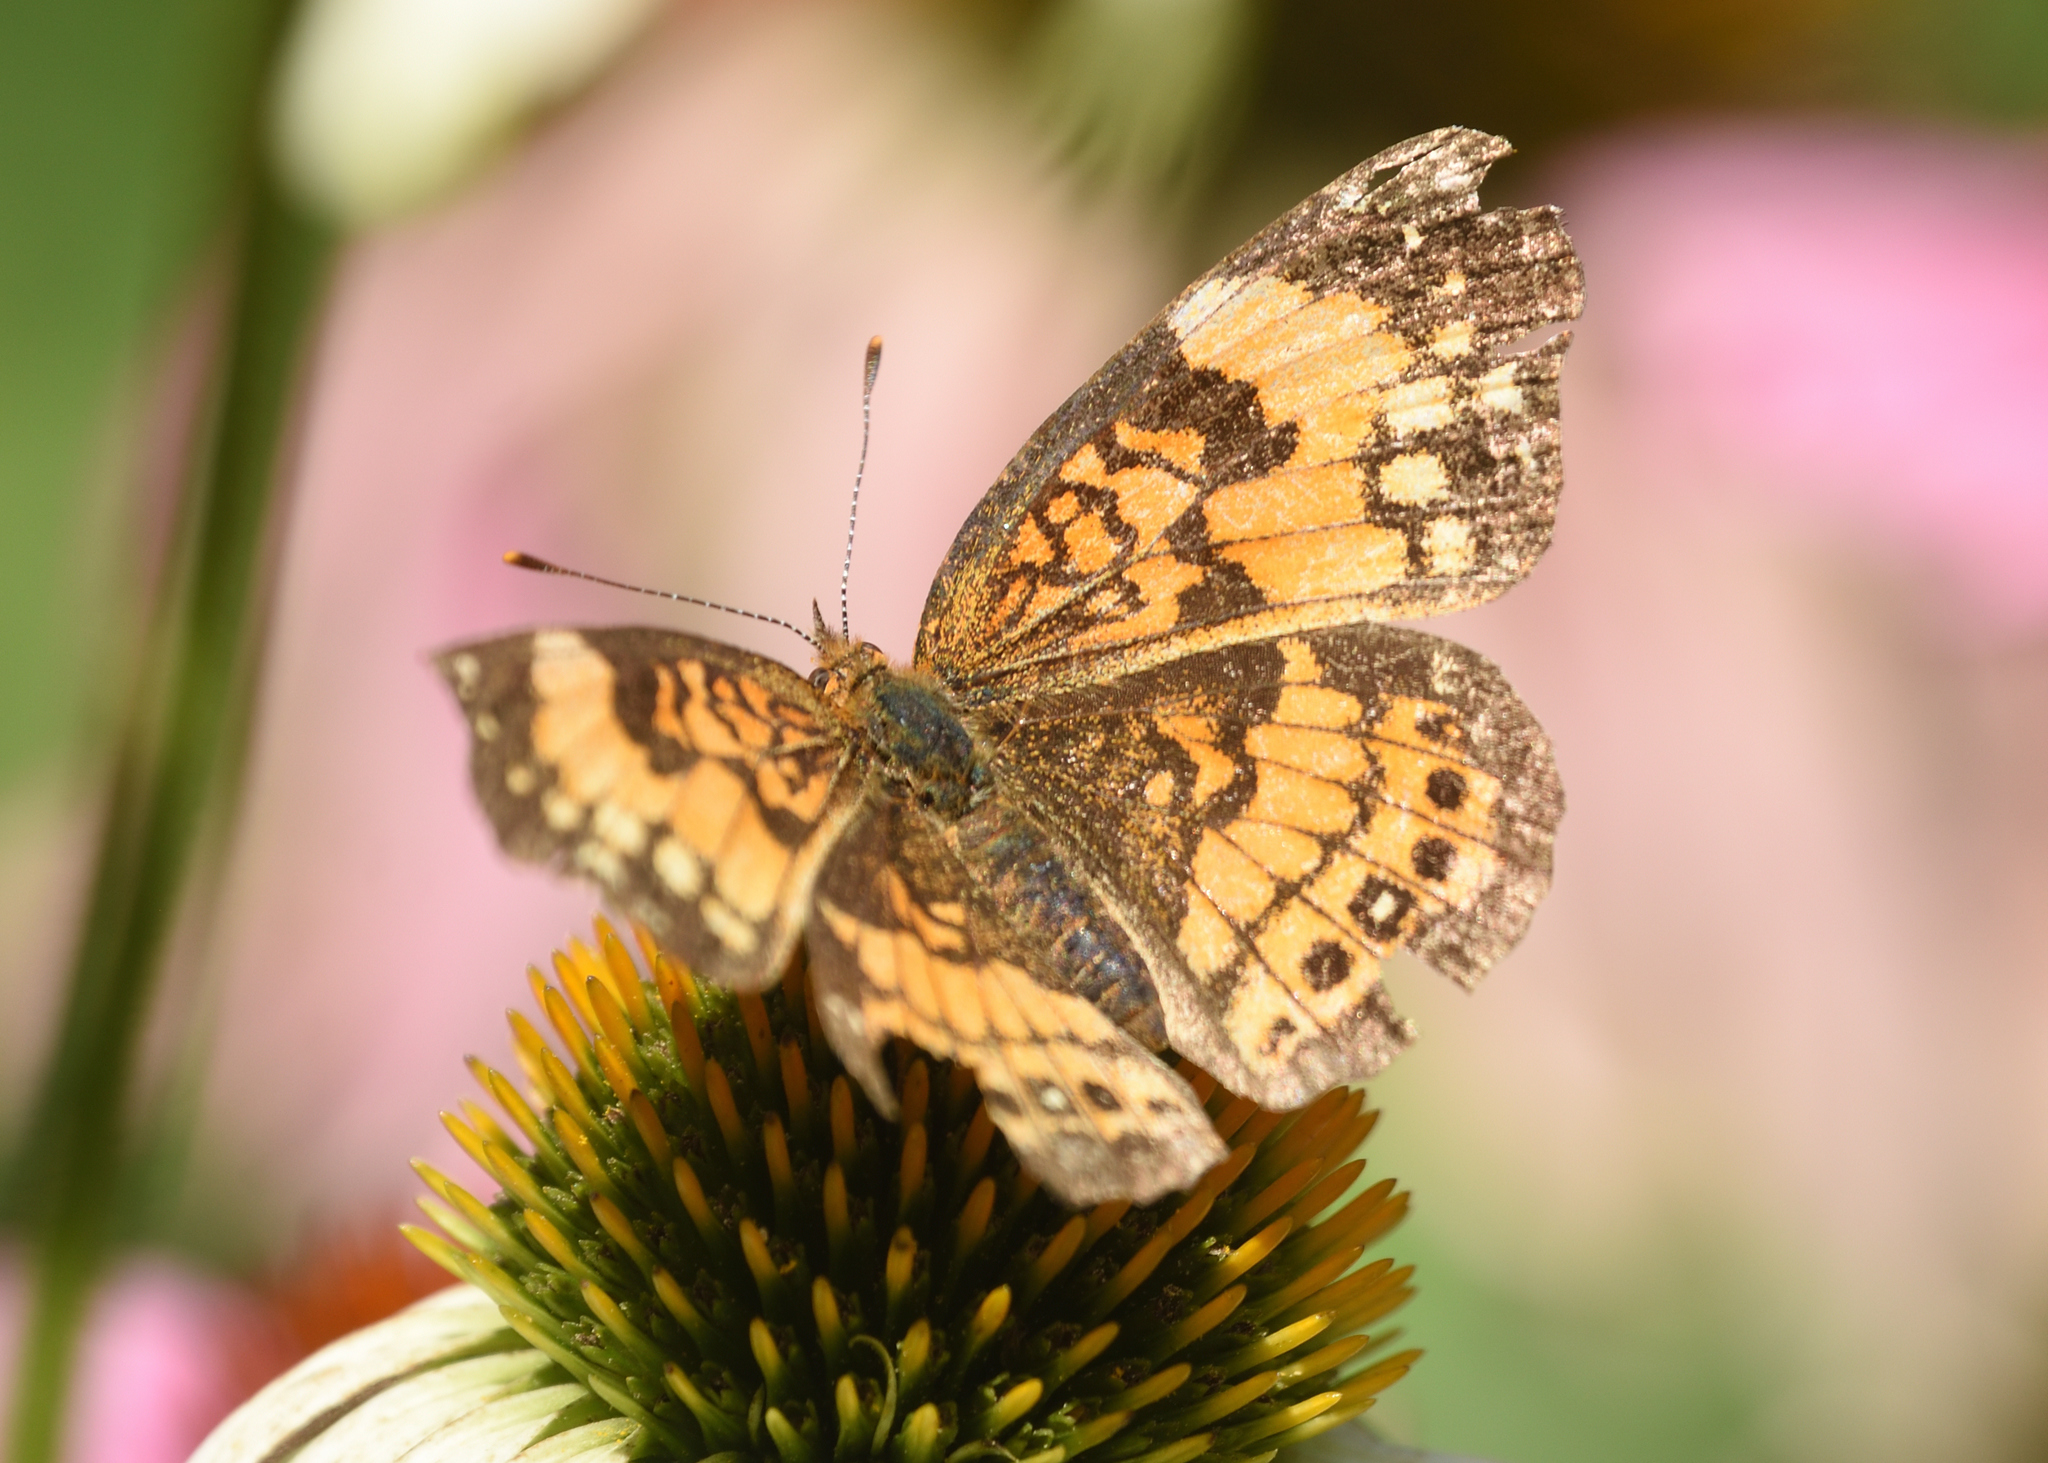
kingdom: Animalia
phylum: Arthropoda
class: Insecta
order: Lepidoptera
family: Nymphalidae
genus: Chlosyne
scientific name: Chlosyne nycteis
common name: Silvery checkerspot
